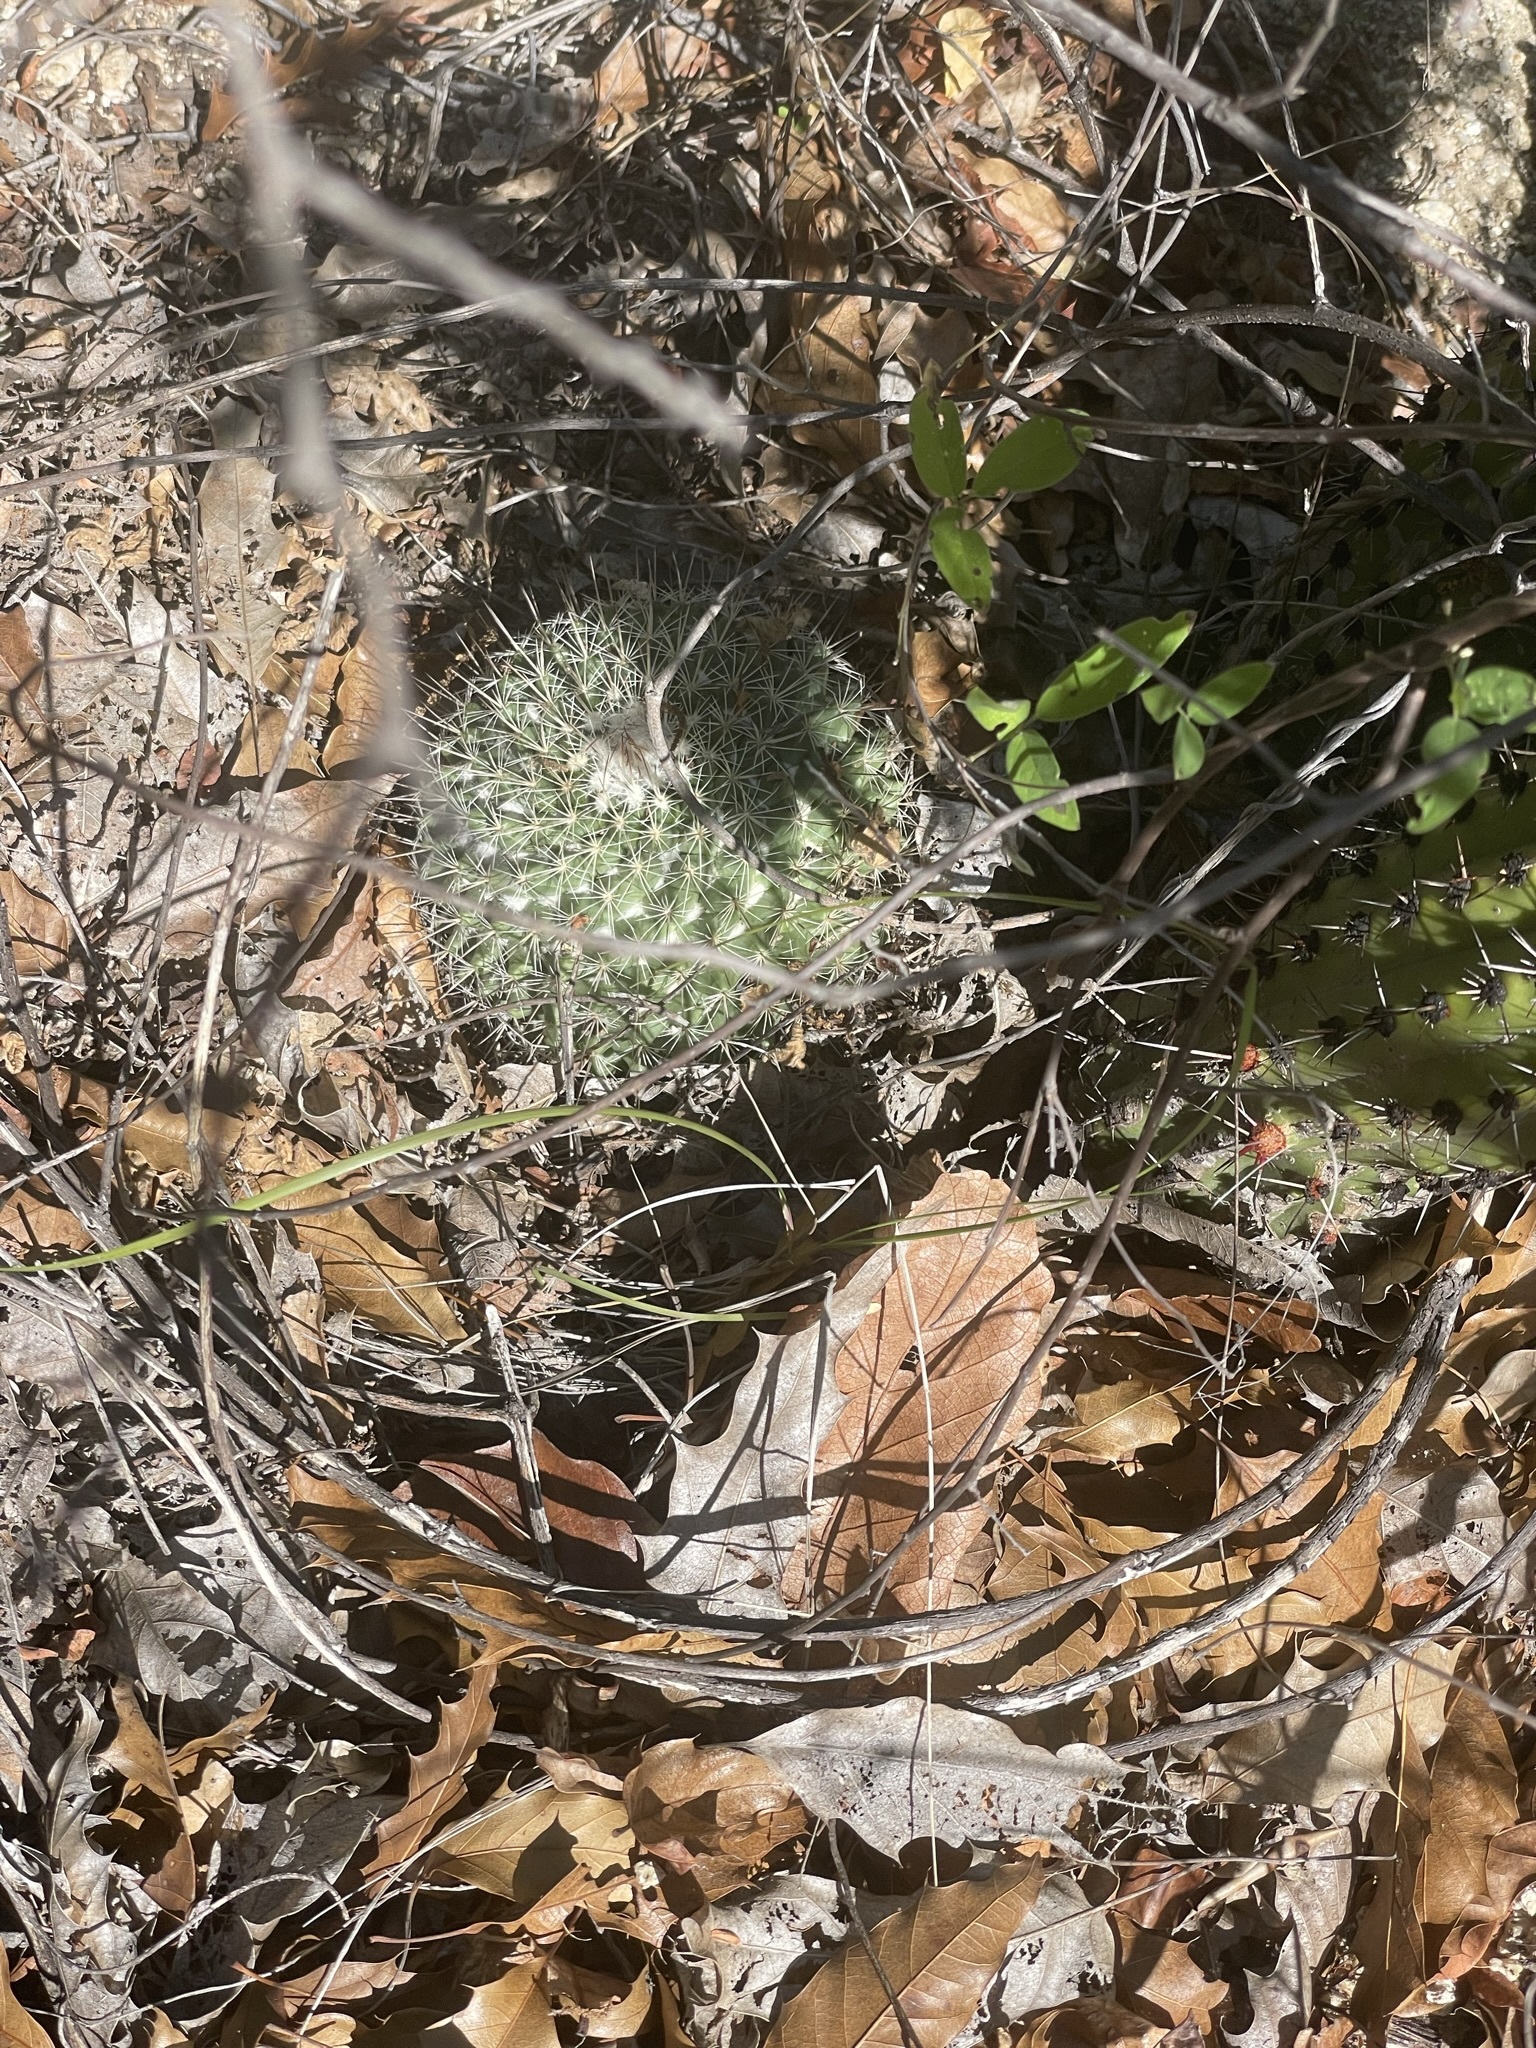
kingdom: Plantae
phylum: Tracheophyta
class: Magnoliopsida
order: Caryophyllales
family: Cactaceae
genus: Mammillaria
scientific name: Mammillaria petrophila
